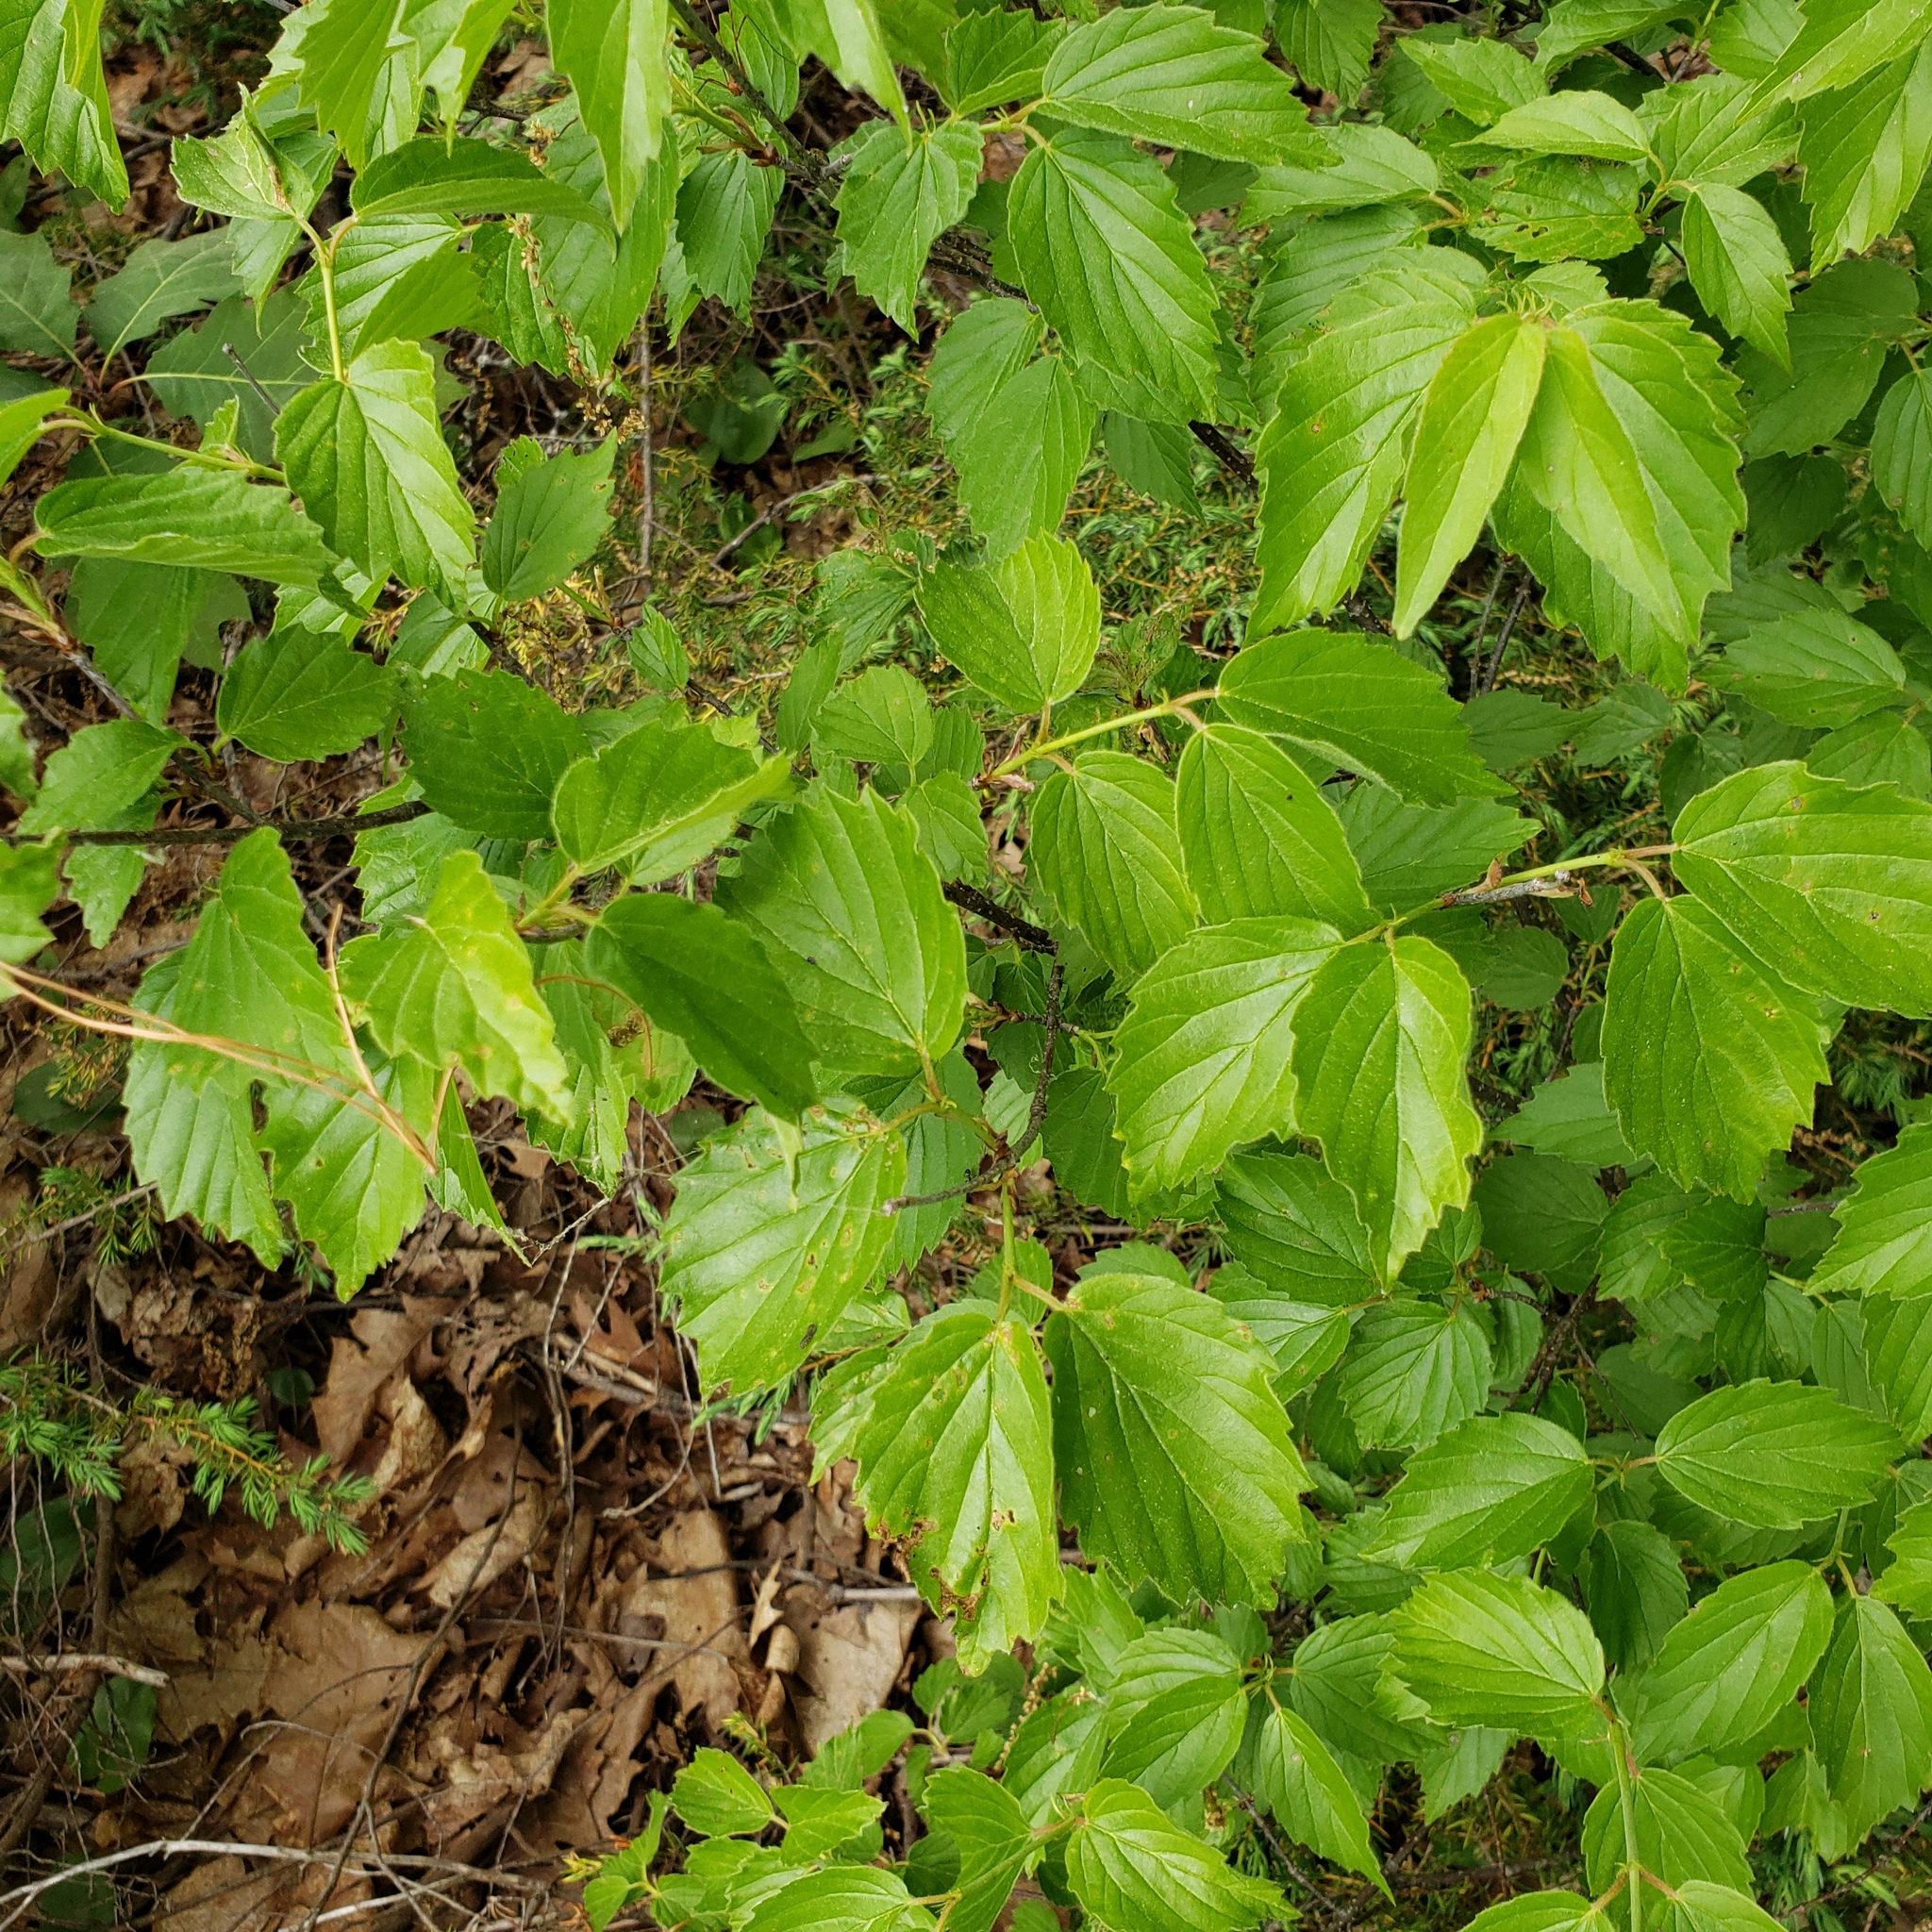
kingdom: Plantae
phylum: Tracheophyta
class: Magnoliopsida
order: Dipsacales
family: Viburnaceae
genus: Viburnum
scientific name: Viburnum rafinesqueanum
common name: Downy arrow-wood
